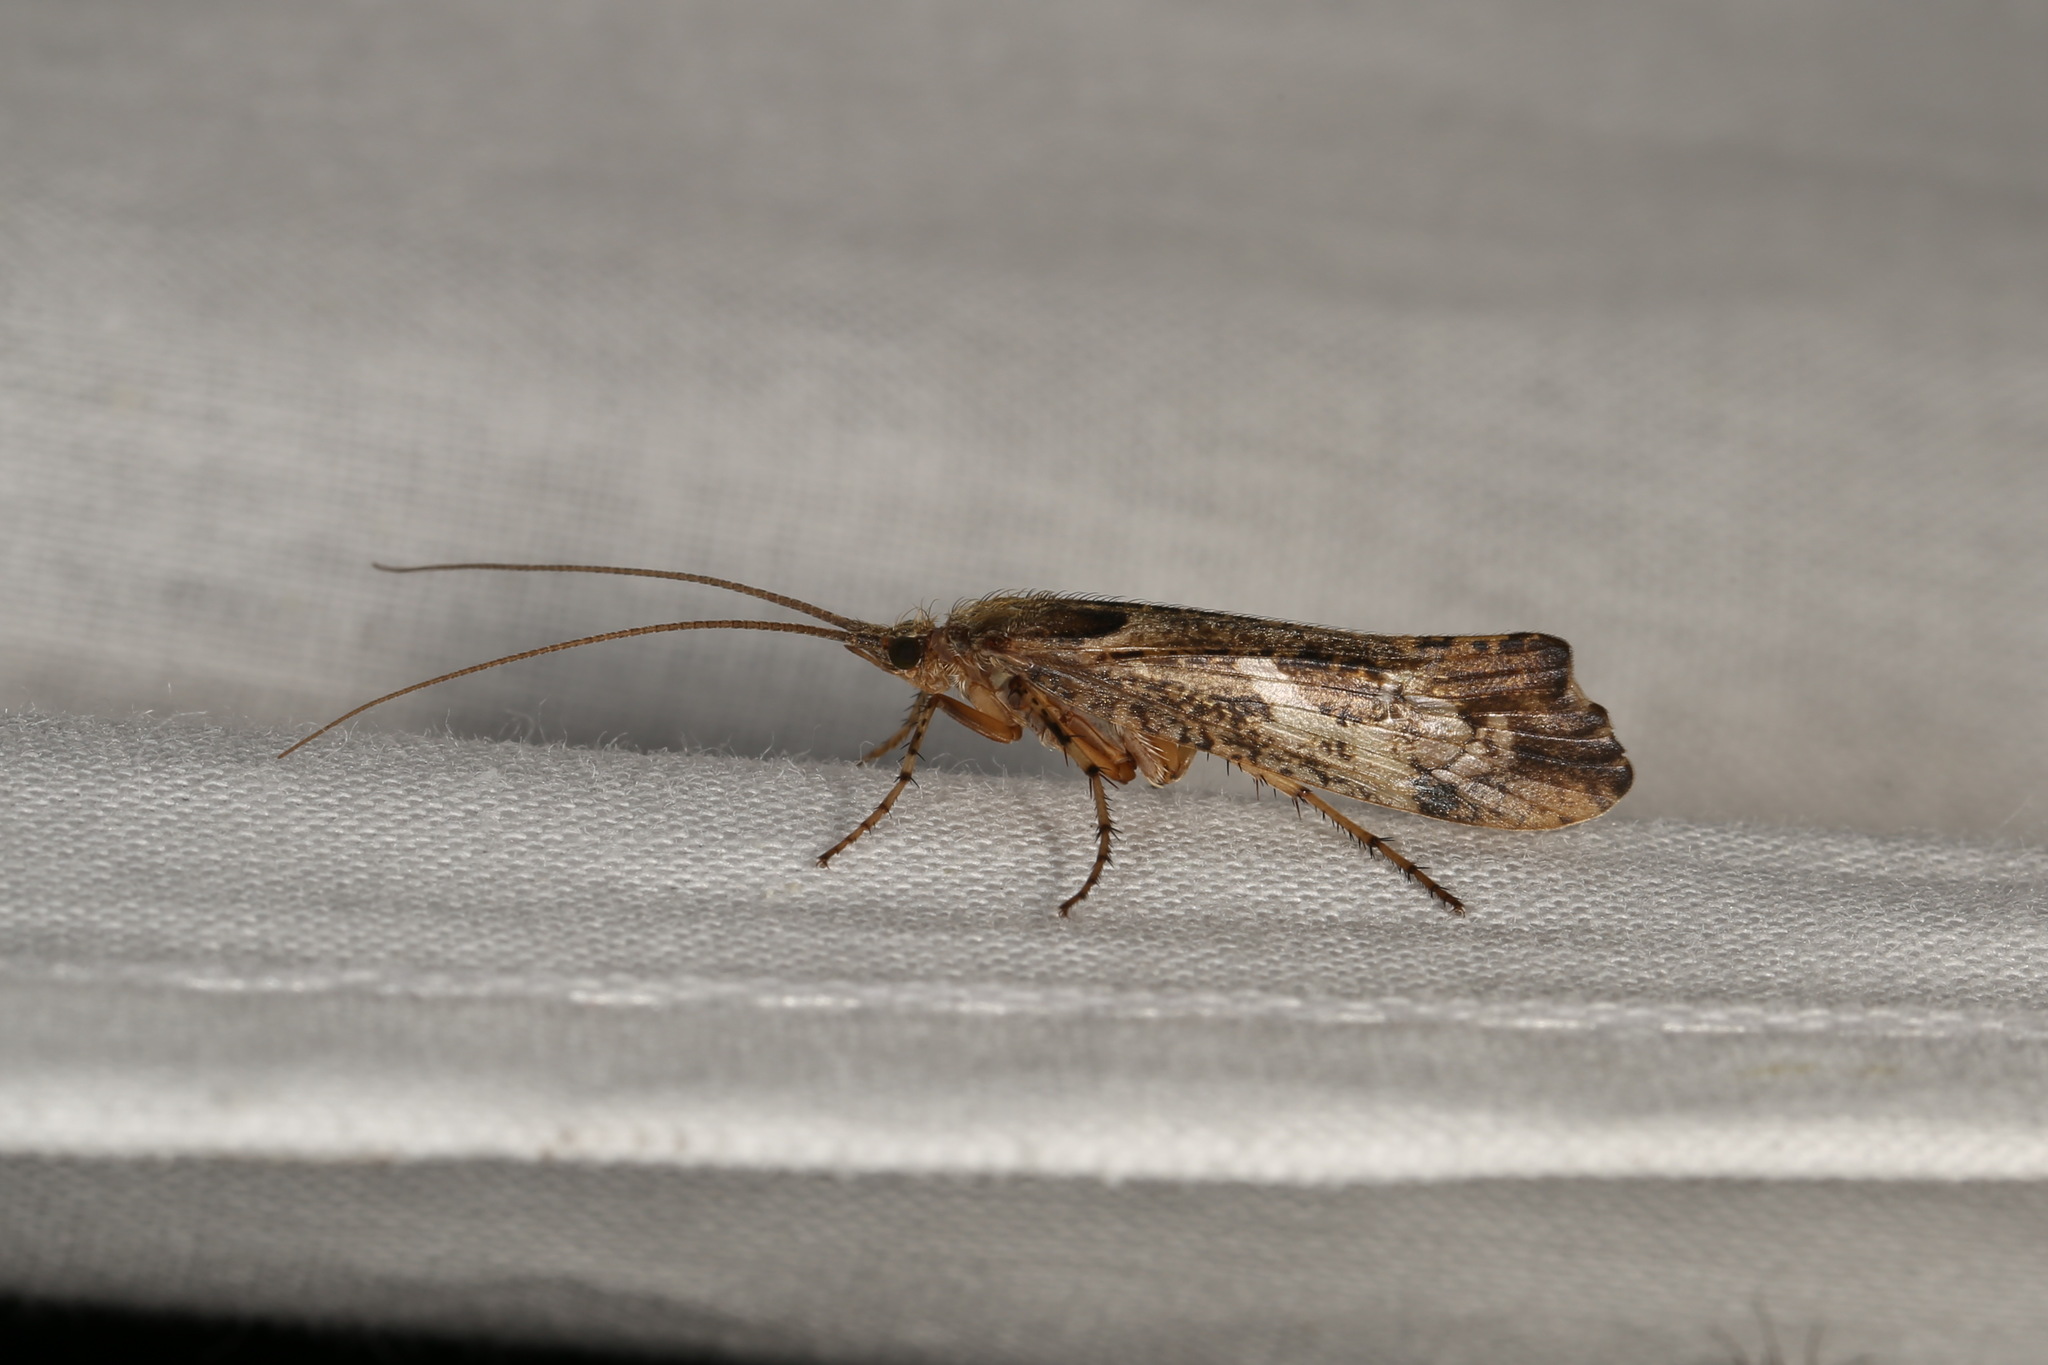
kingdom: Animalia
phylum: Arthropoda
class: Insecta
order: Trichoptera
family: Limnephilidae
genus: Glyphotaelius
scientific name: Glyphotaelius pellucidus
